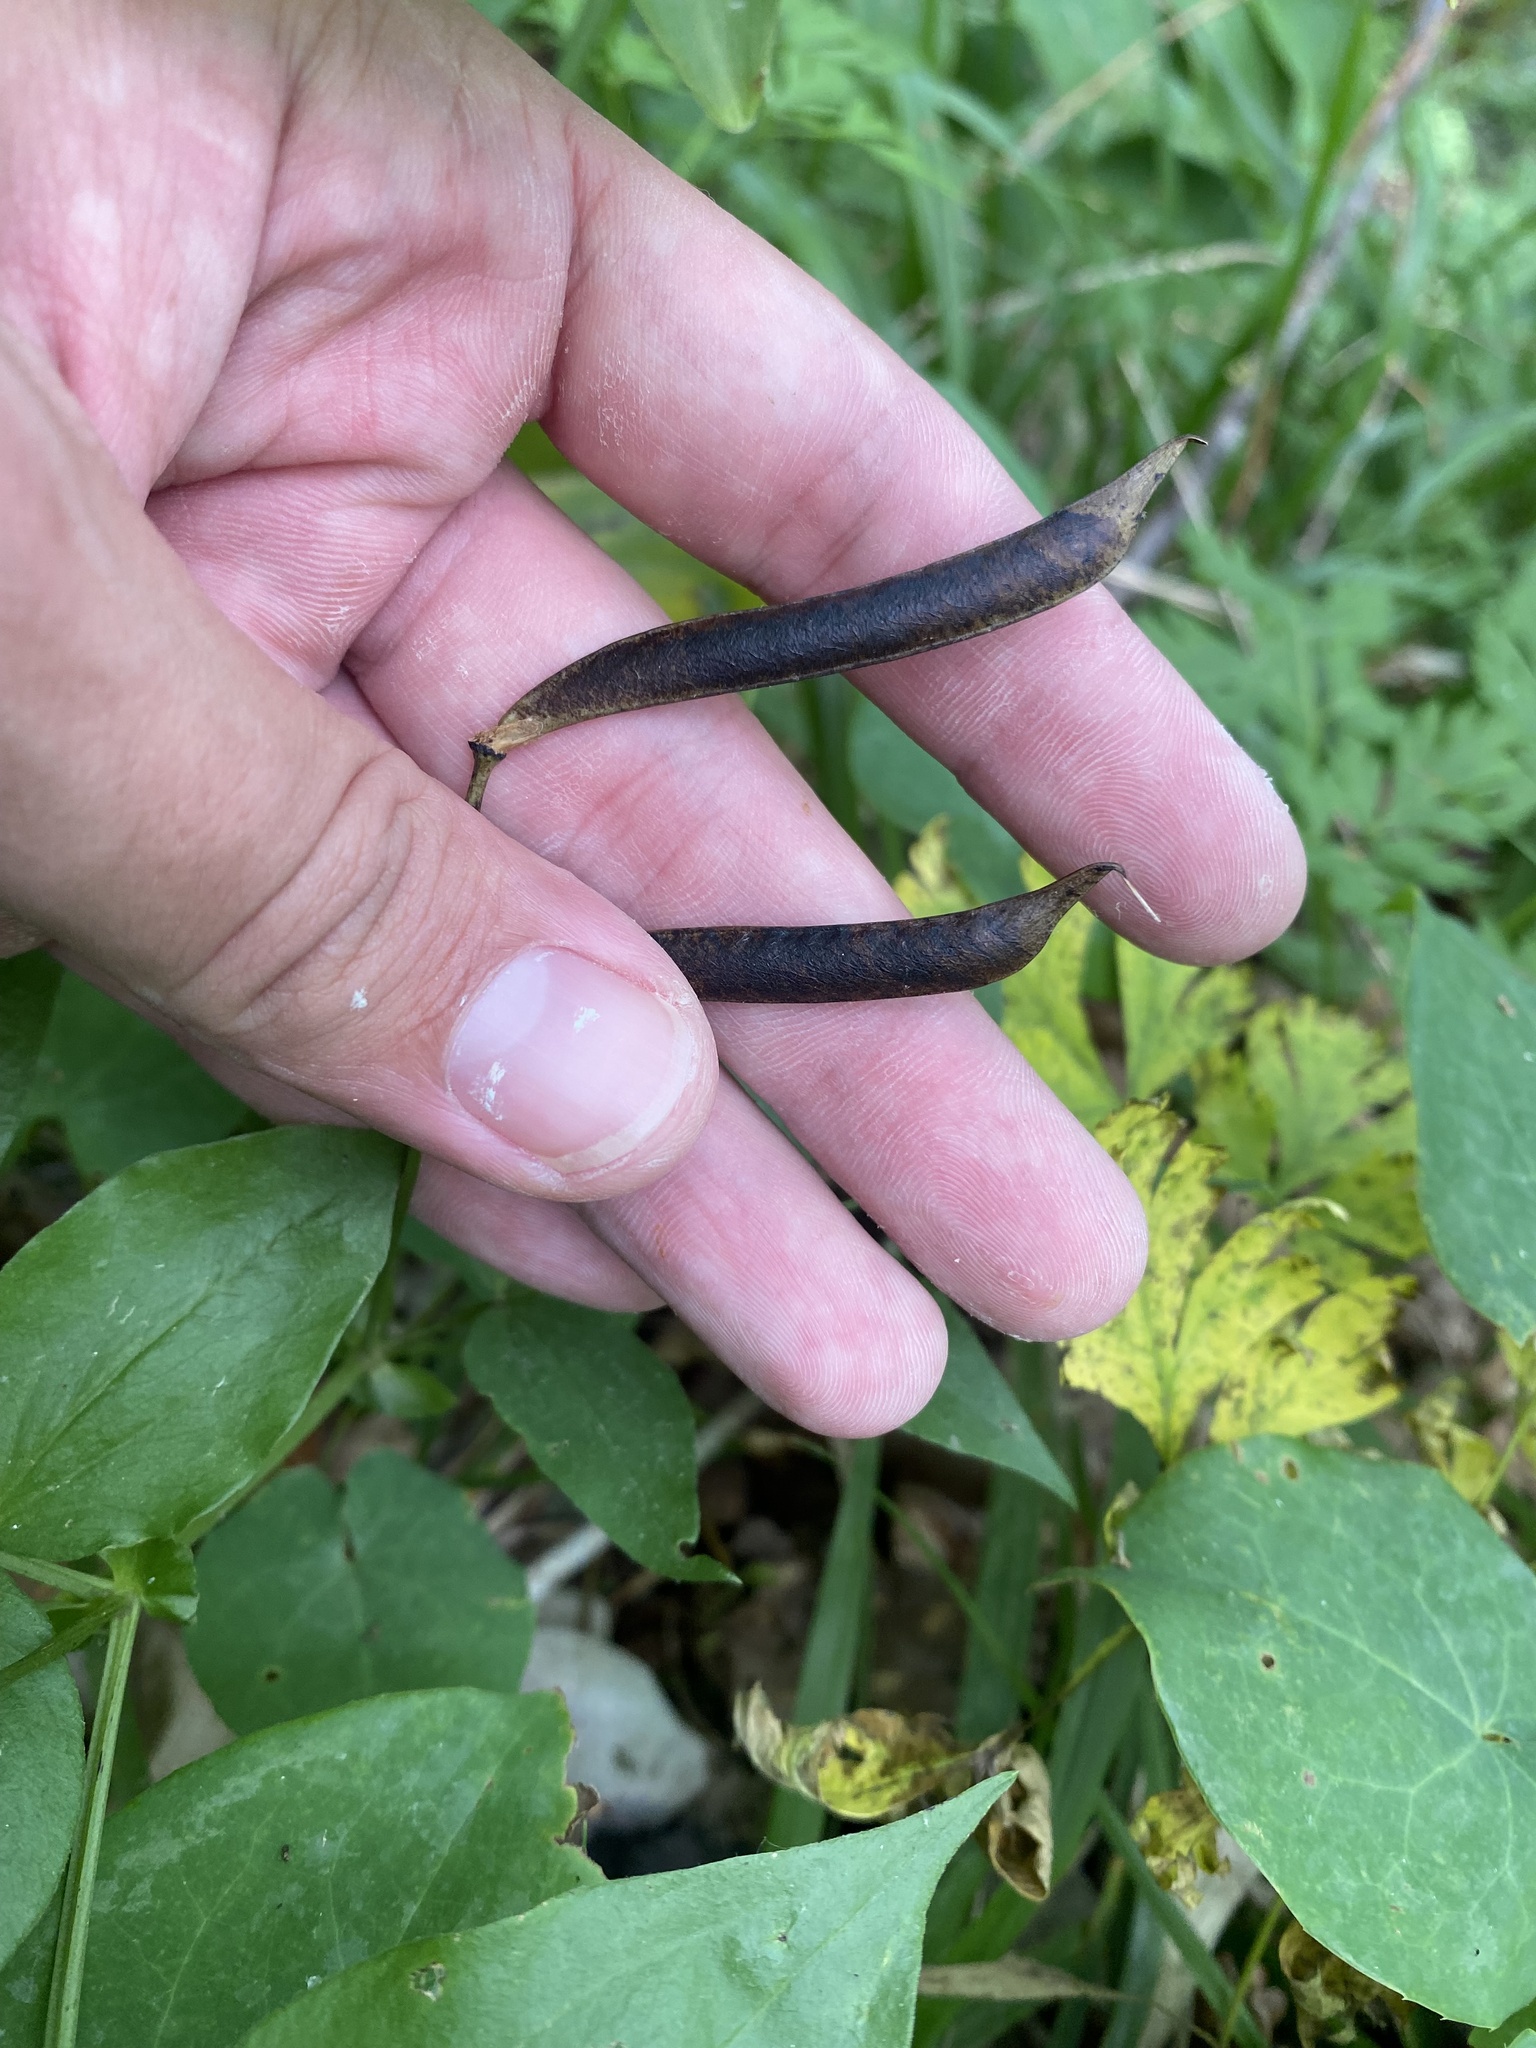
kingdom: Plantae
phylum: Tracheophyta
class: Magnoliopsida
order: Fabales
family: Fabaceae
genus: Lathyrus
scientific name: Lathyrus vernus
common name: Spring pea
